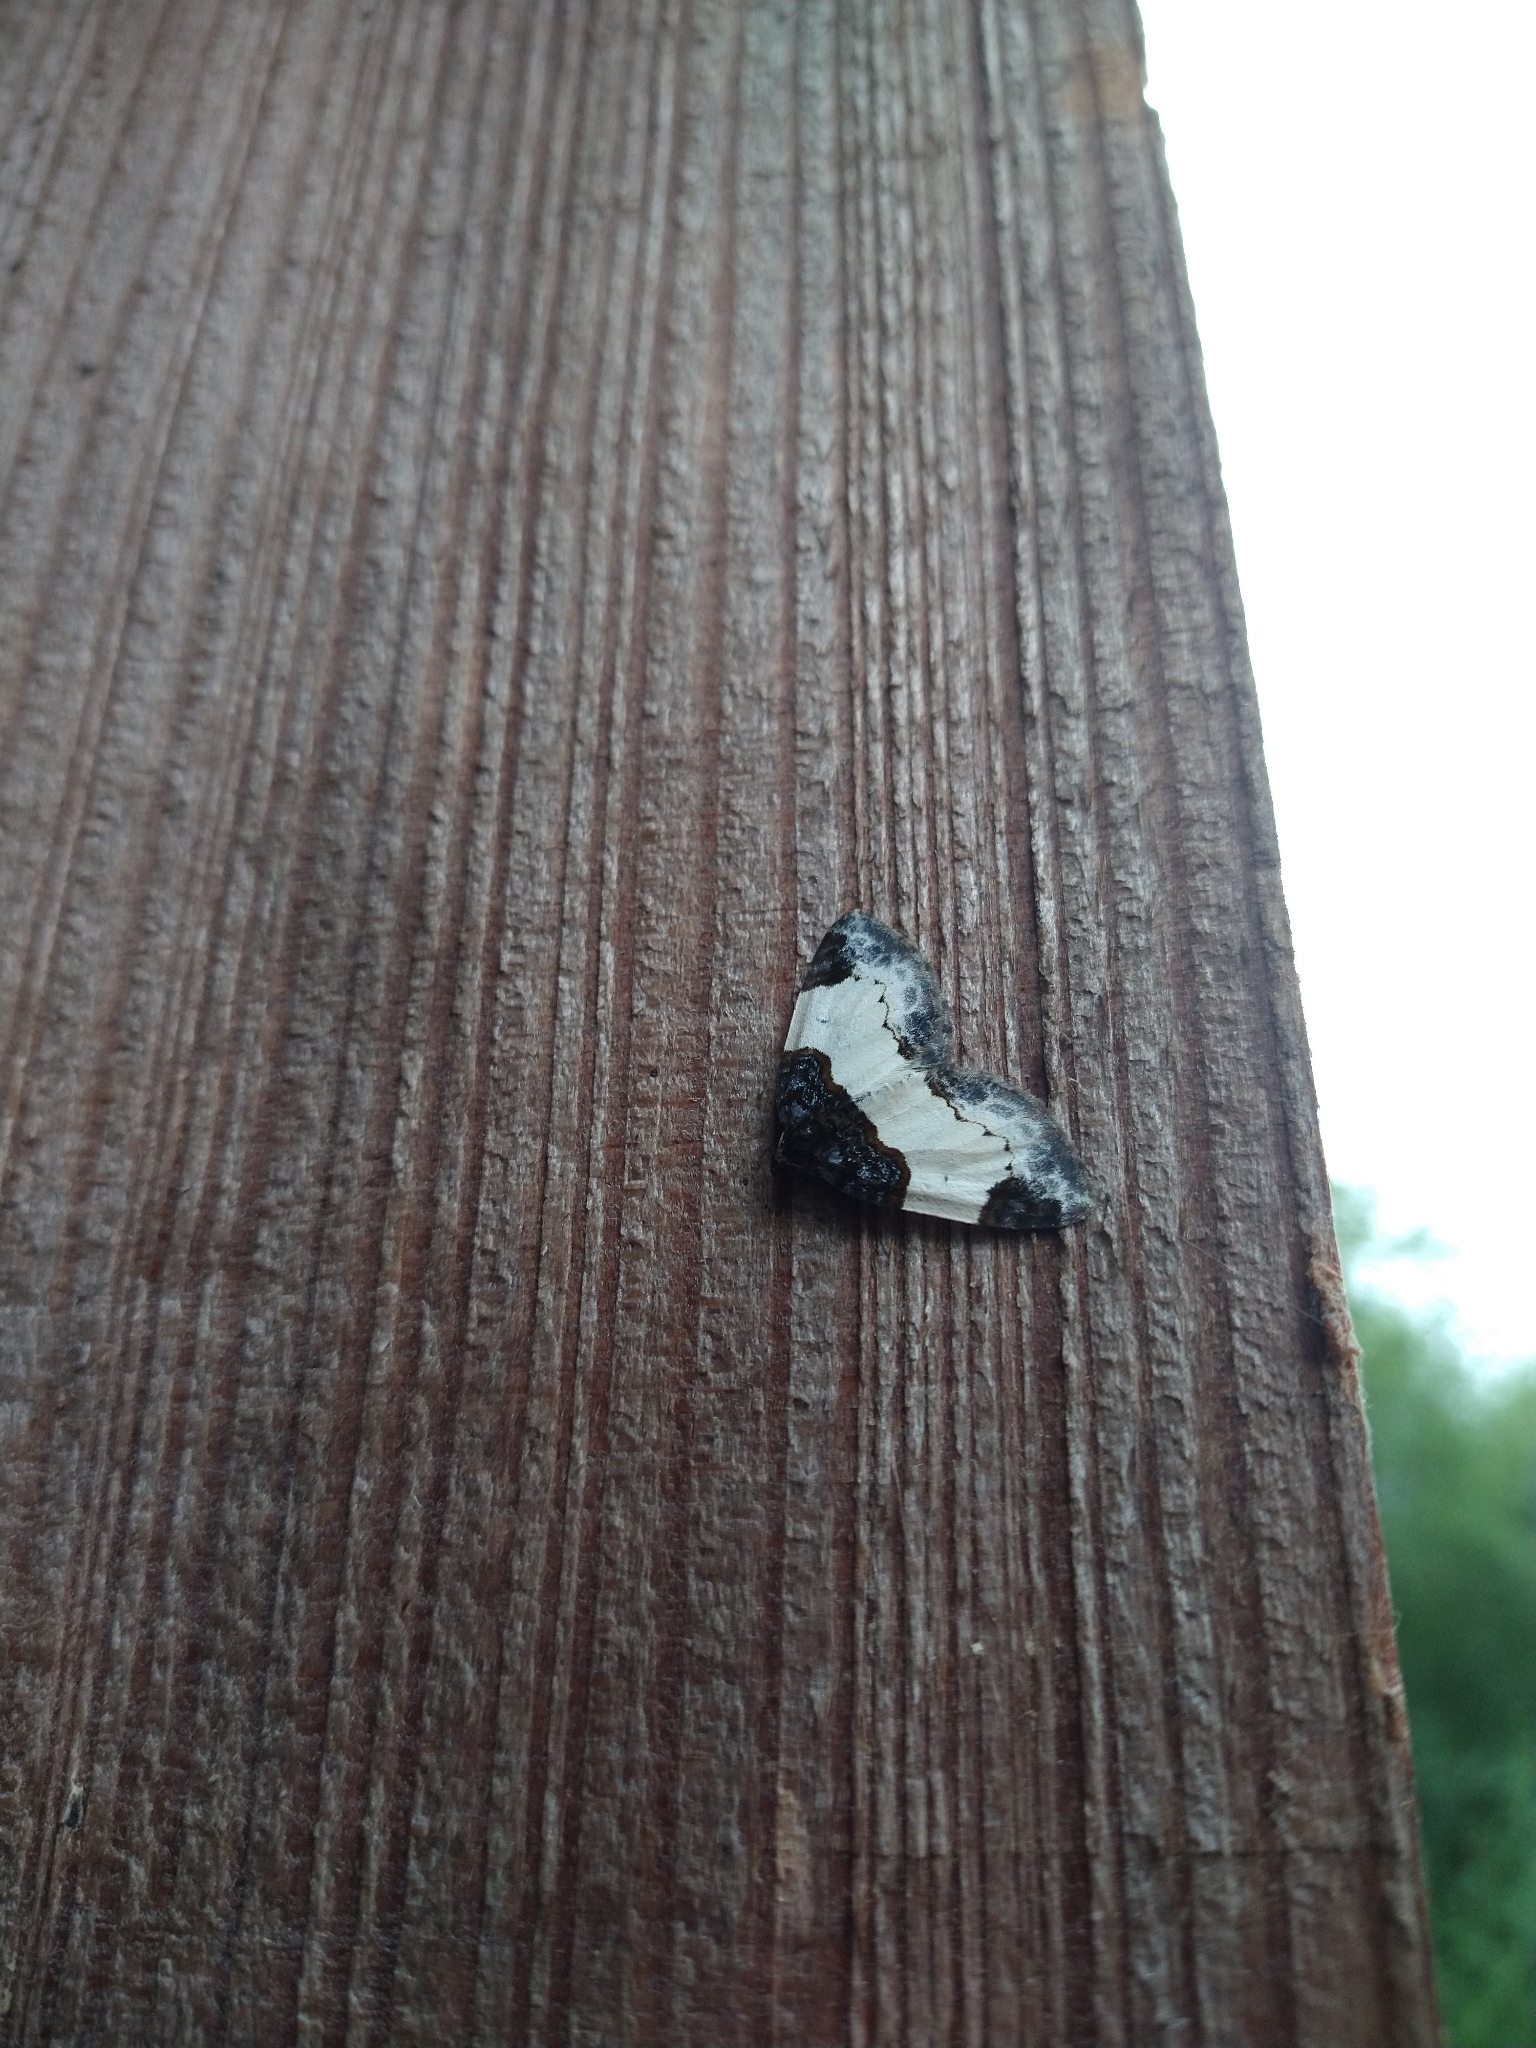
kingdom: Animalia
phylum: Arthropoda
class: Insecta
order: Lepidoptera
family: Geometridae
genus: Mesoleuca
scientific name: Mesoleuca albicillata
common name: Beautiful carpet
